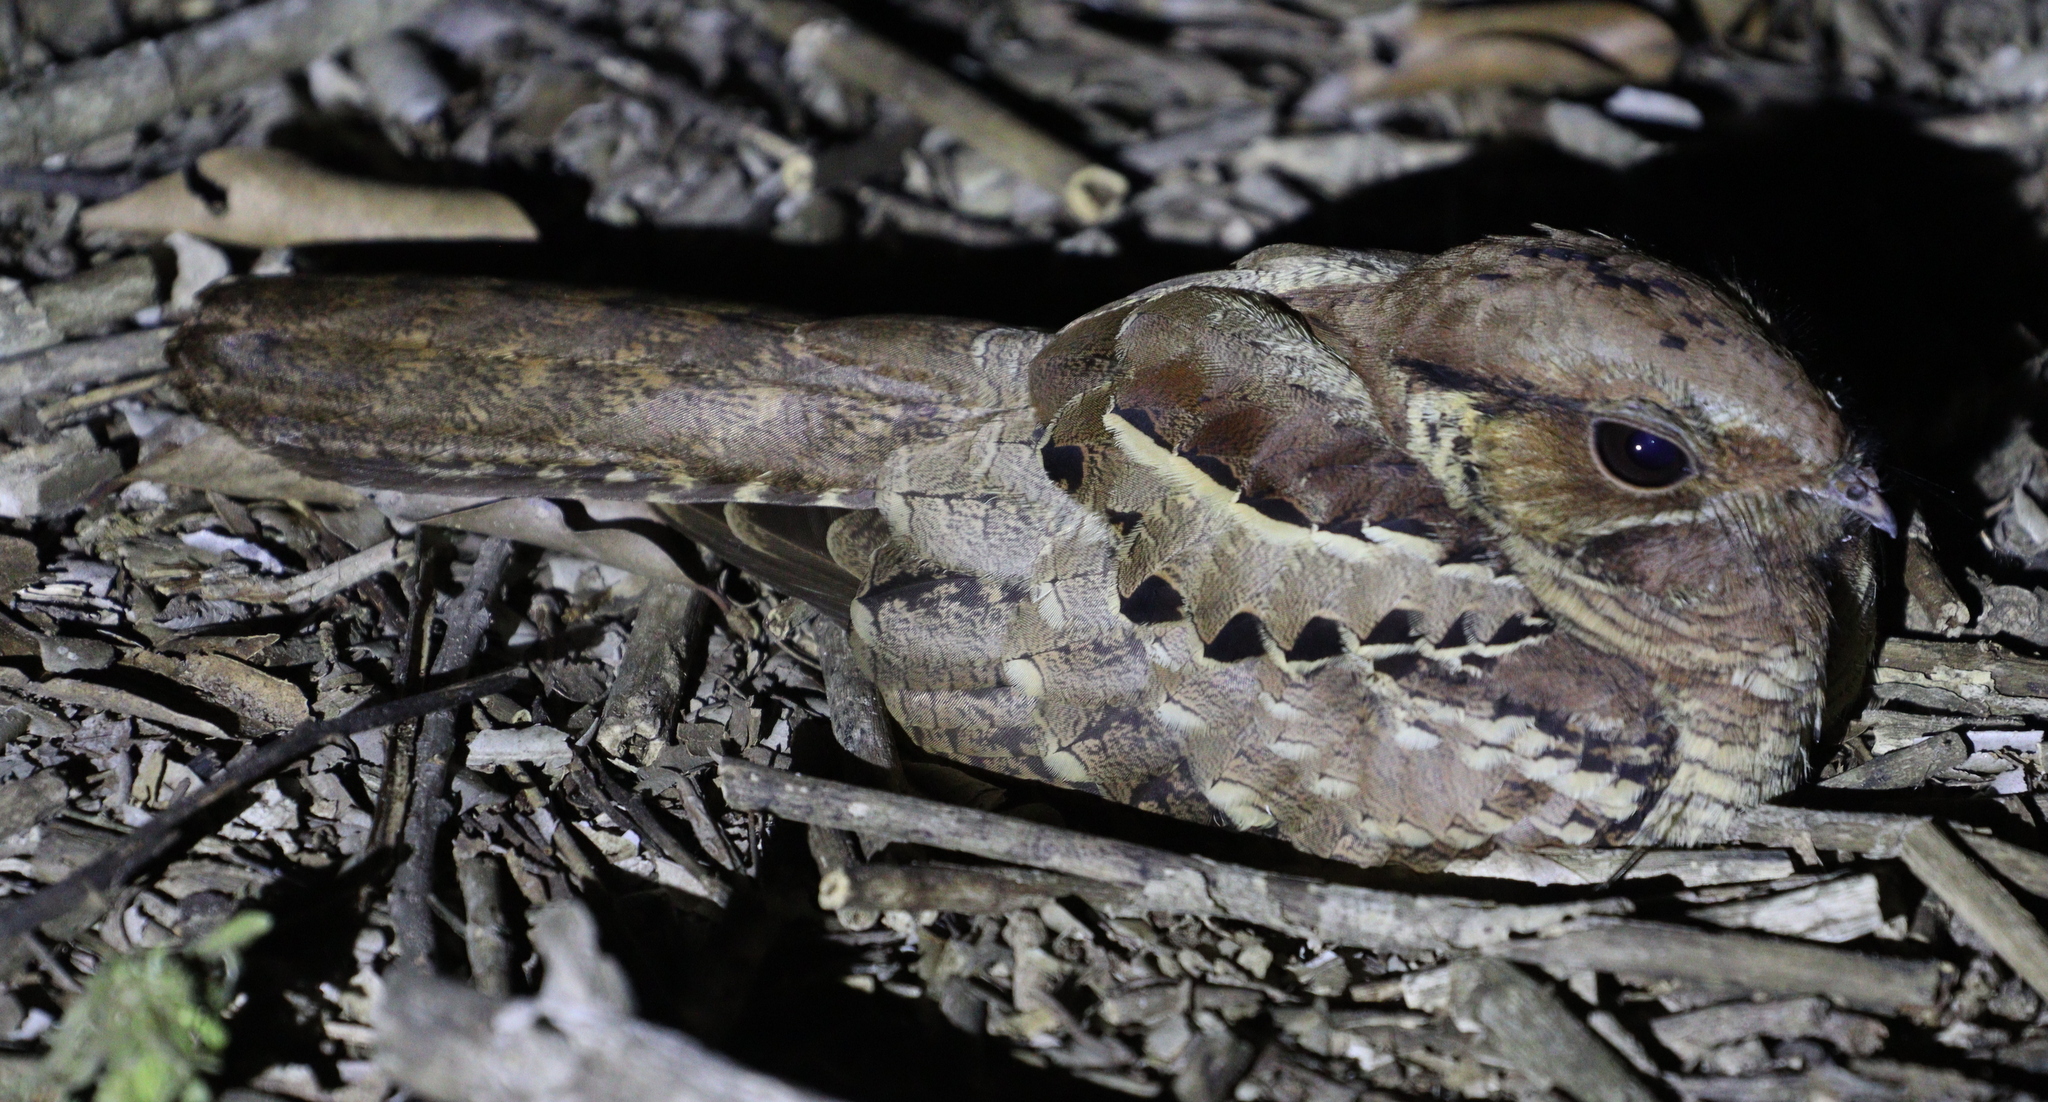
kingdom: Animalia
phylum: Chordata
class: Aves
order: Caprimulgiformes
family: Caprimulgidae
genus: Nyctidromus
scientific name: Nyctidromus albicollis
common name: Pauraque
